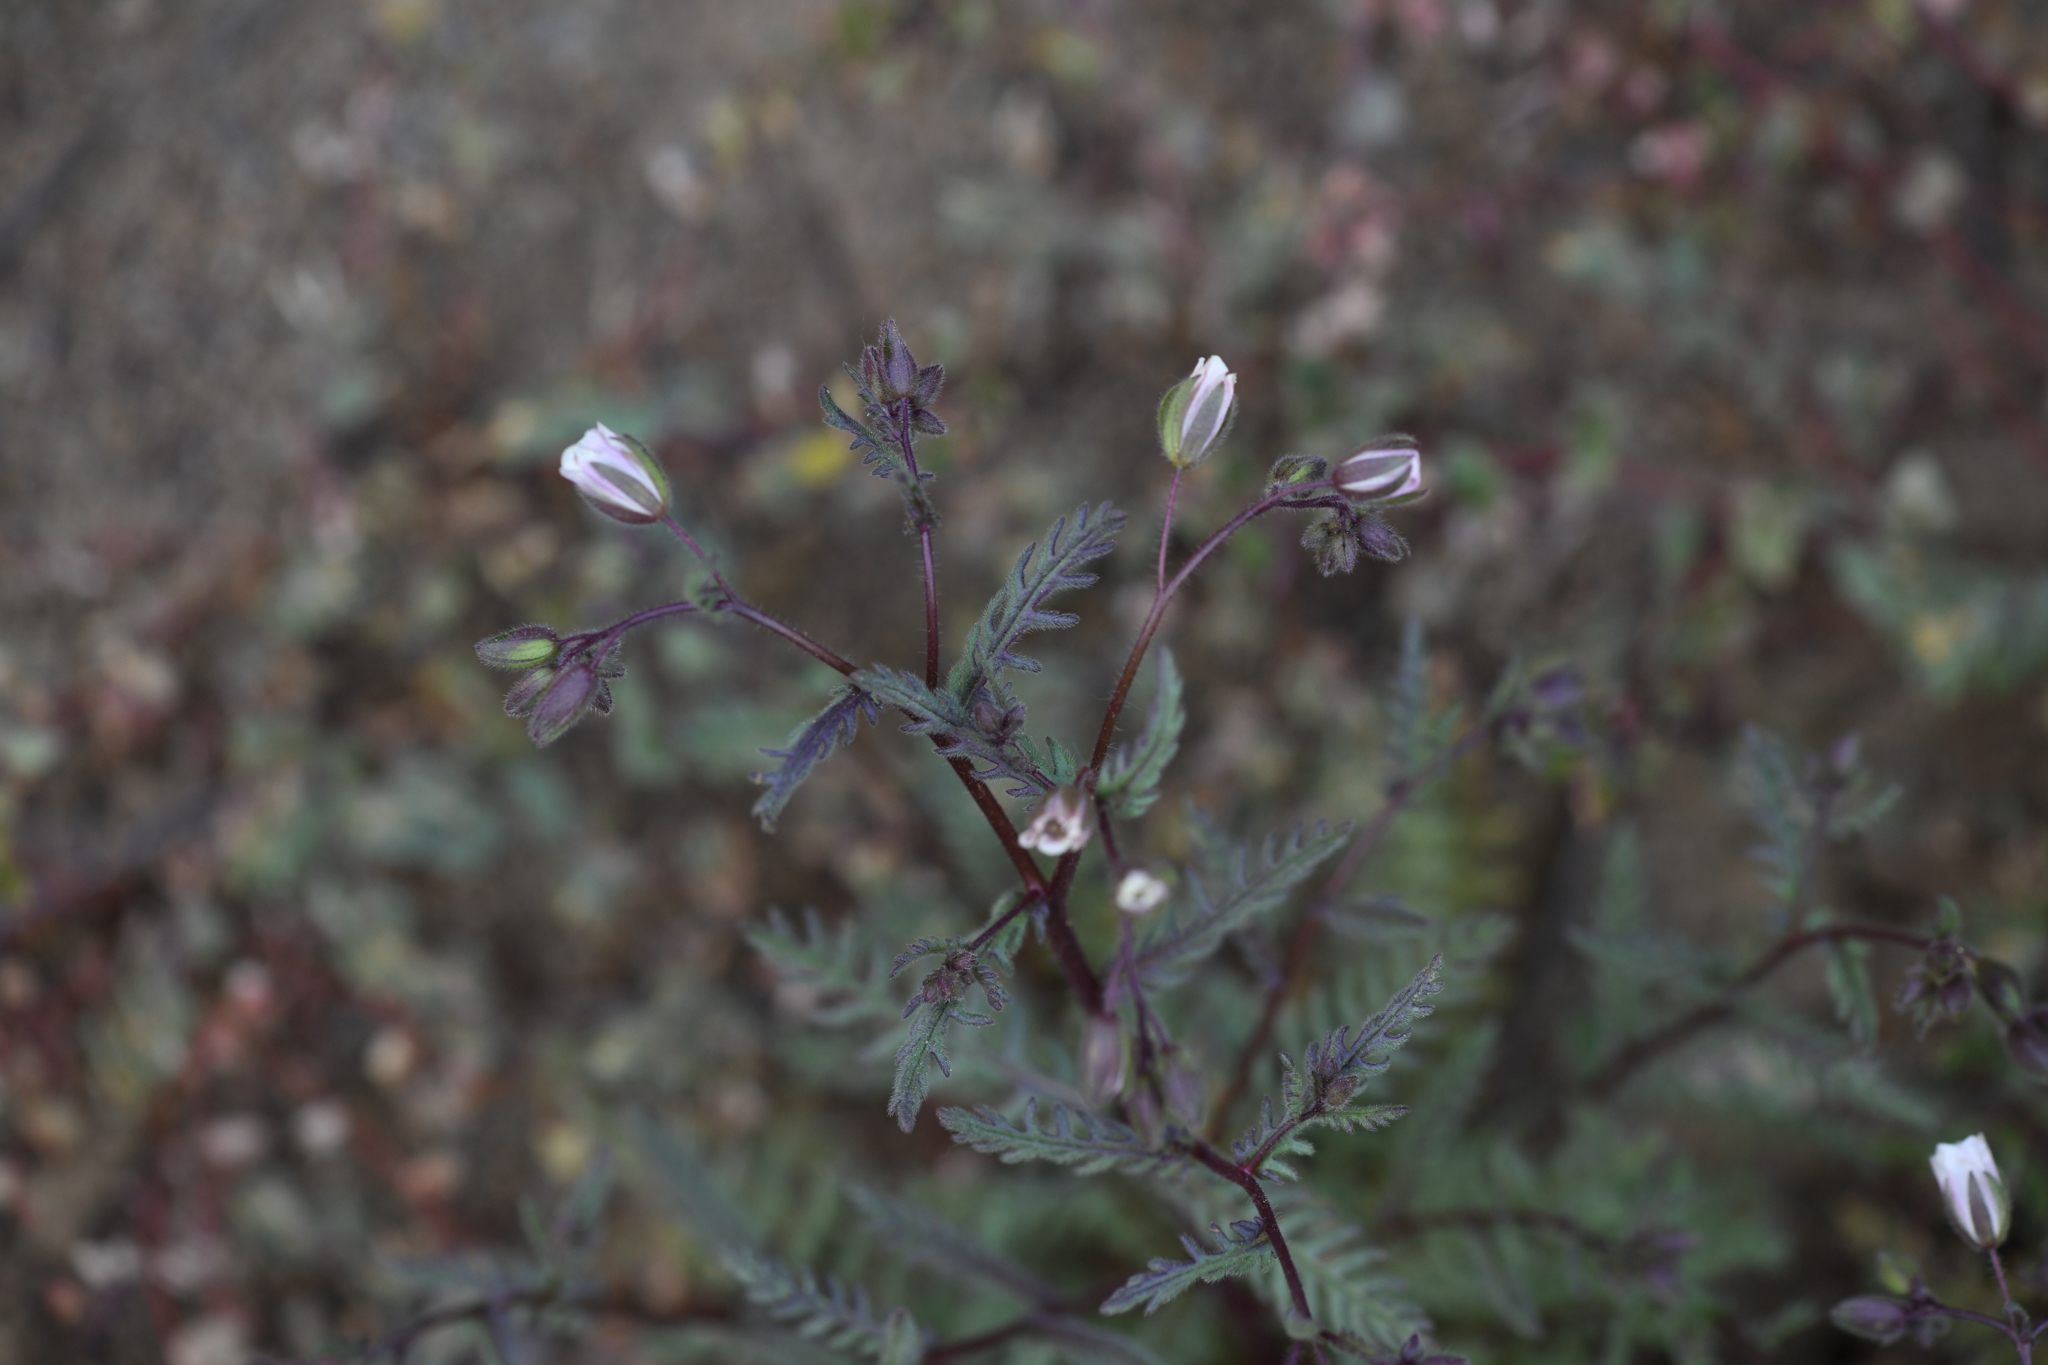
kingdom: Plantae
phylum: Tracheophyta
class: Magnoliopsida
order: Boraginales
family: Hydrophyllaceae
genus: Emmenanthe
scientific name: Emmenanthe penduliflora
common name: Whispering-bells
